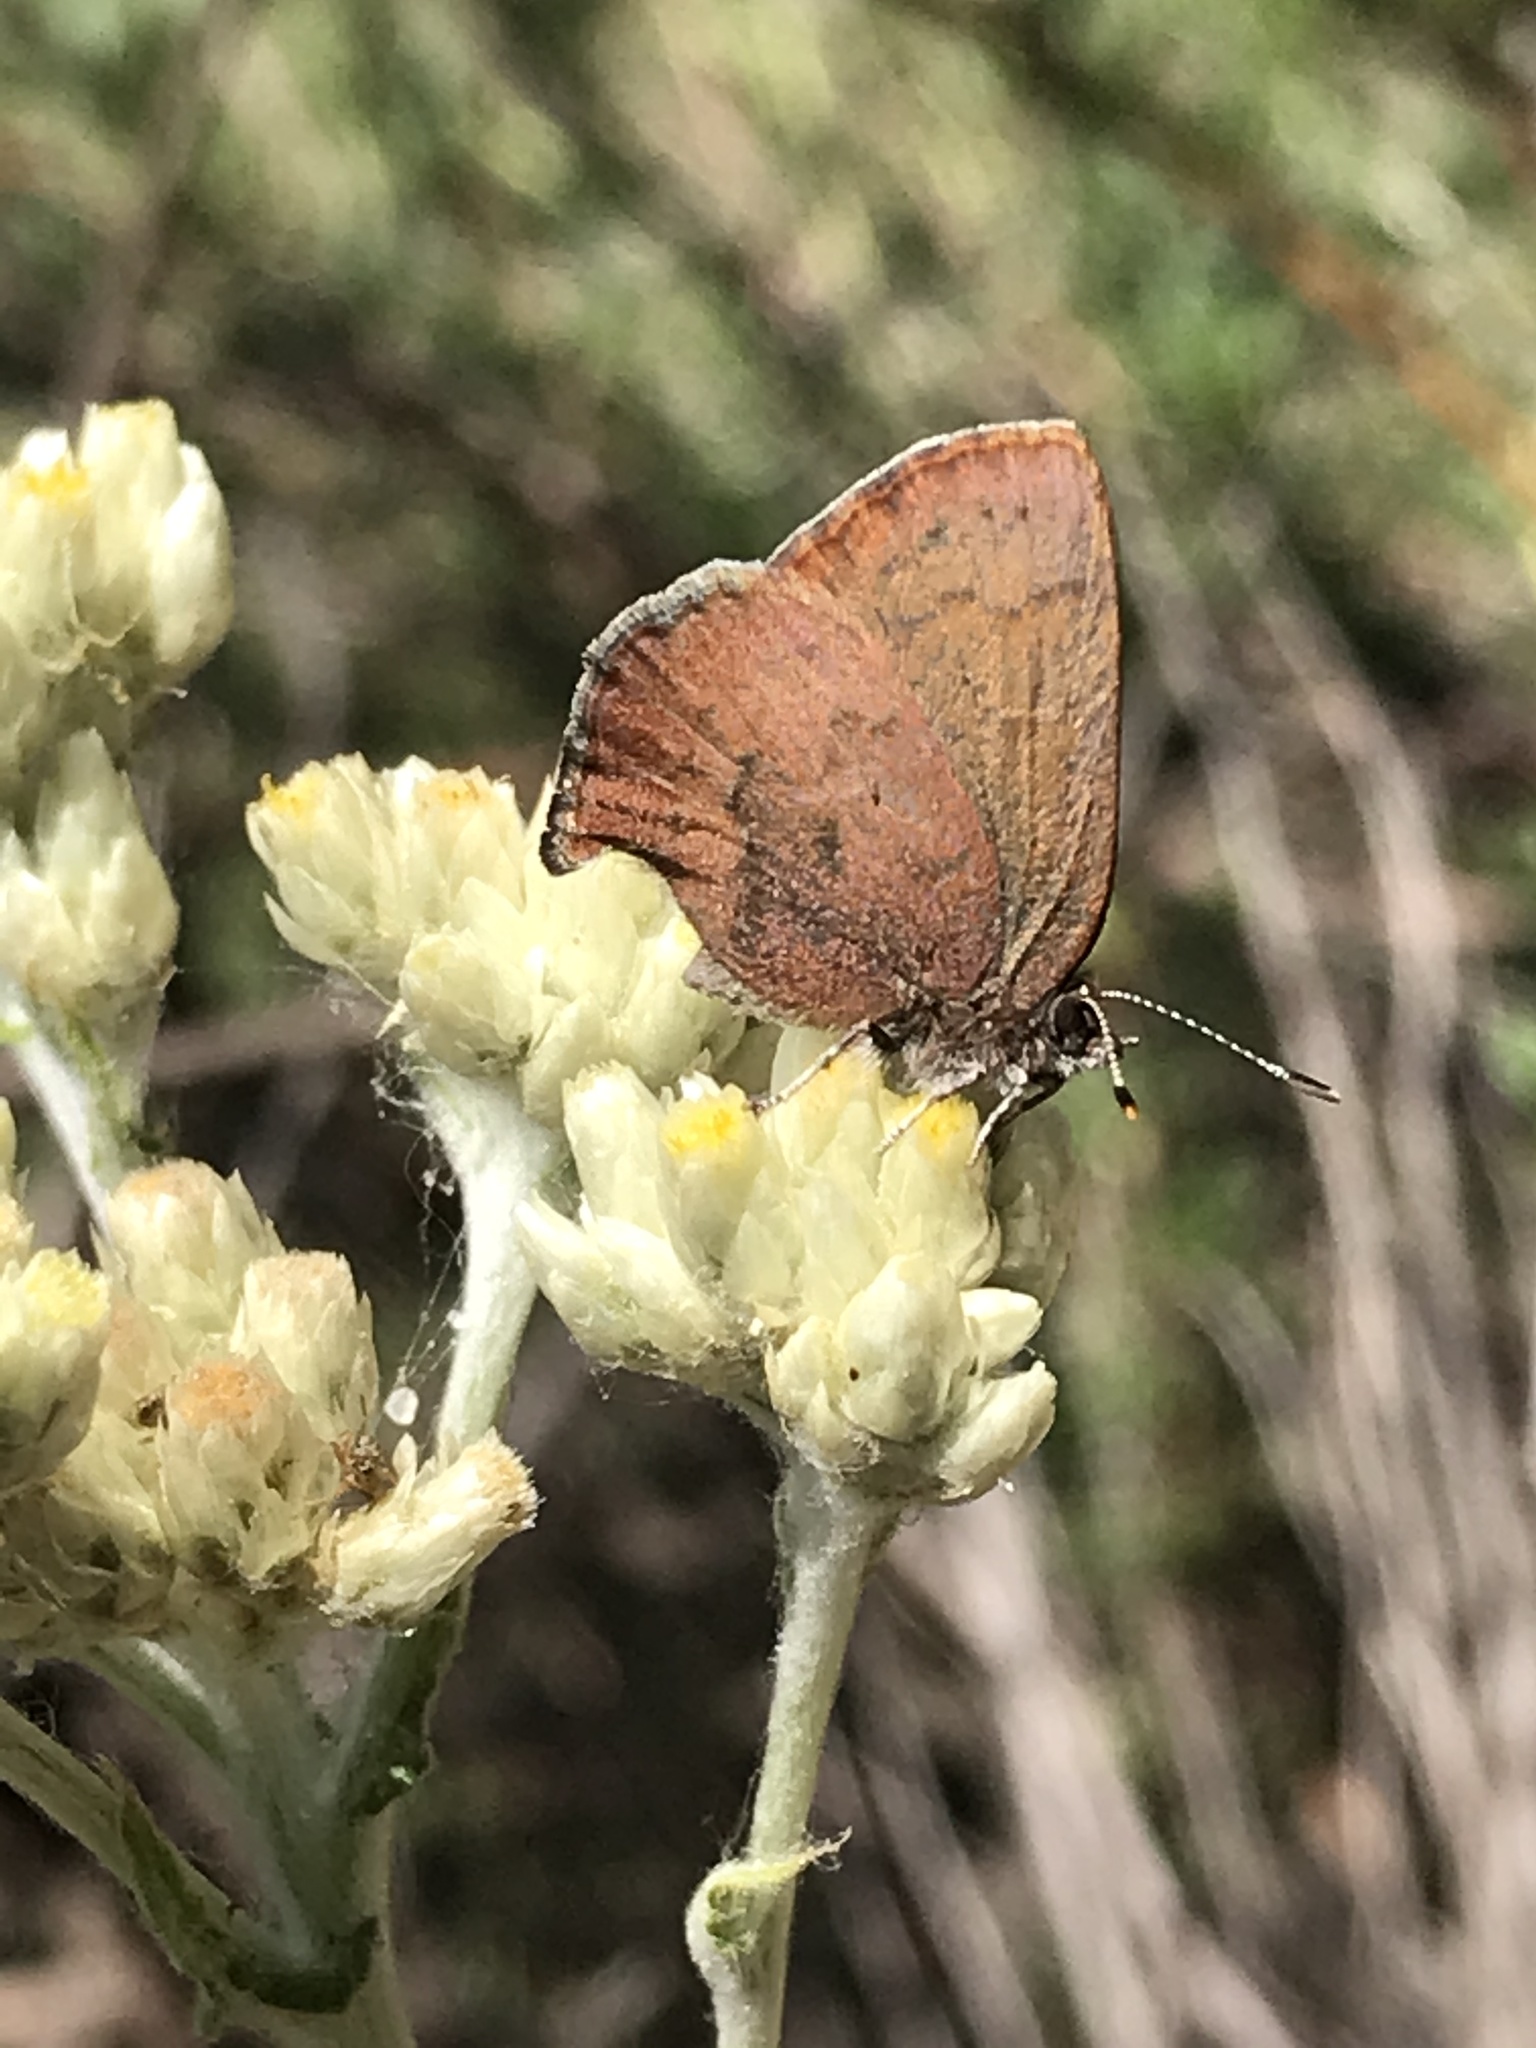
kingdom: Animalia
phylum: Arthropoda
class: Insecta
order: Lepidoptera
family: Lycaenidae
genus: Incisalia
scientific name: Incisalia irioides
